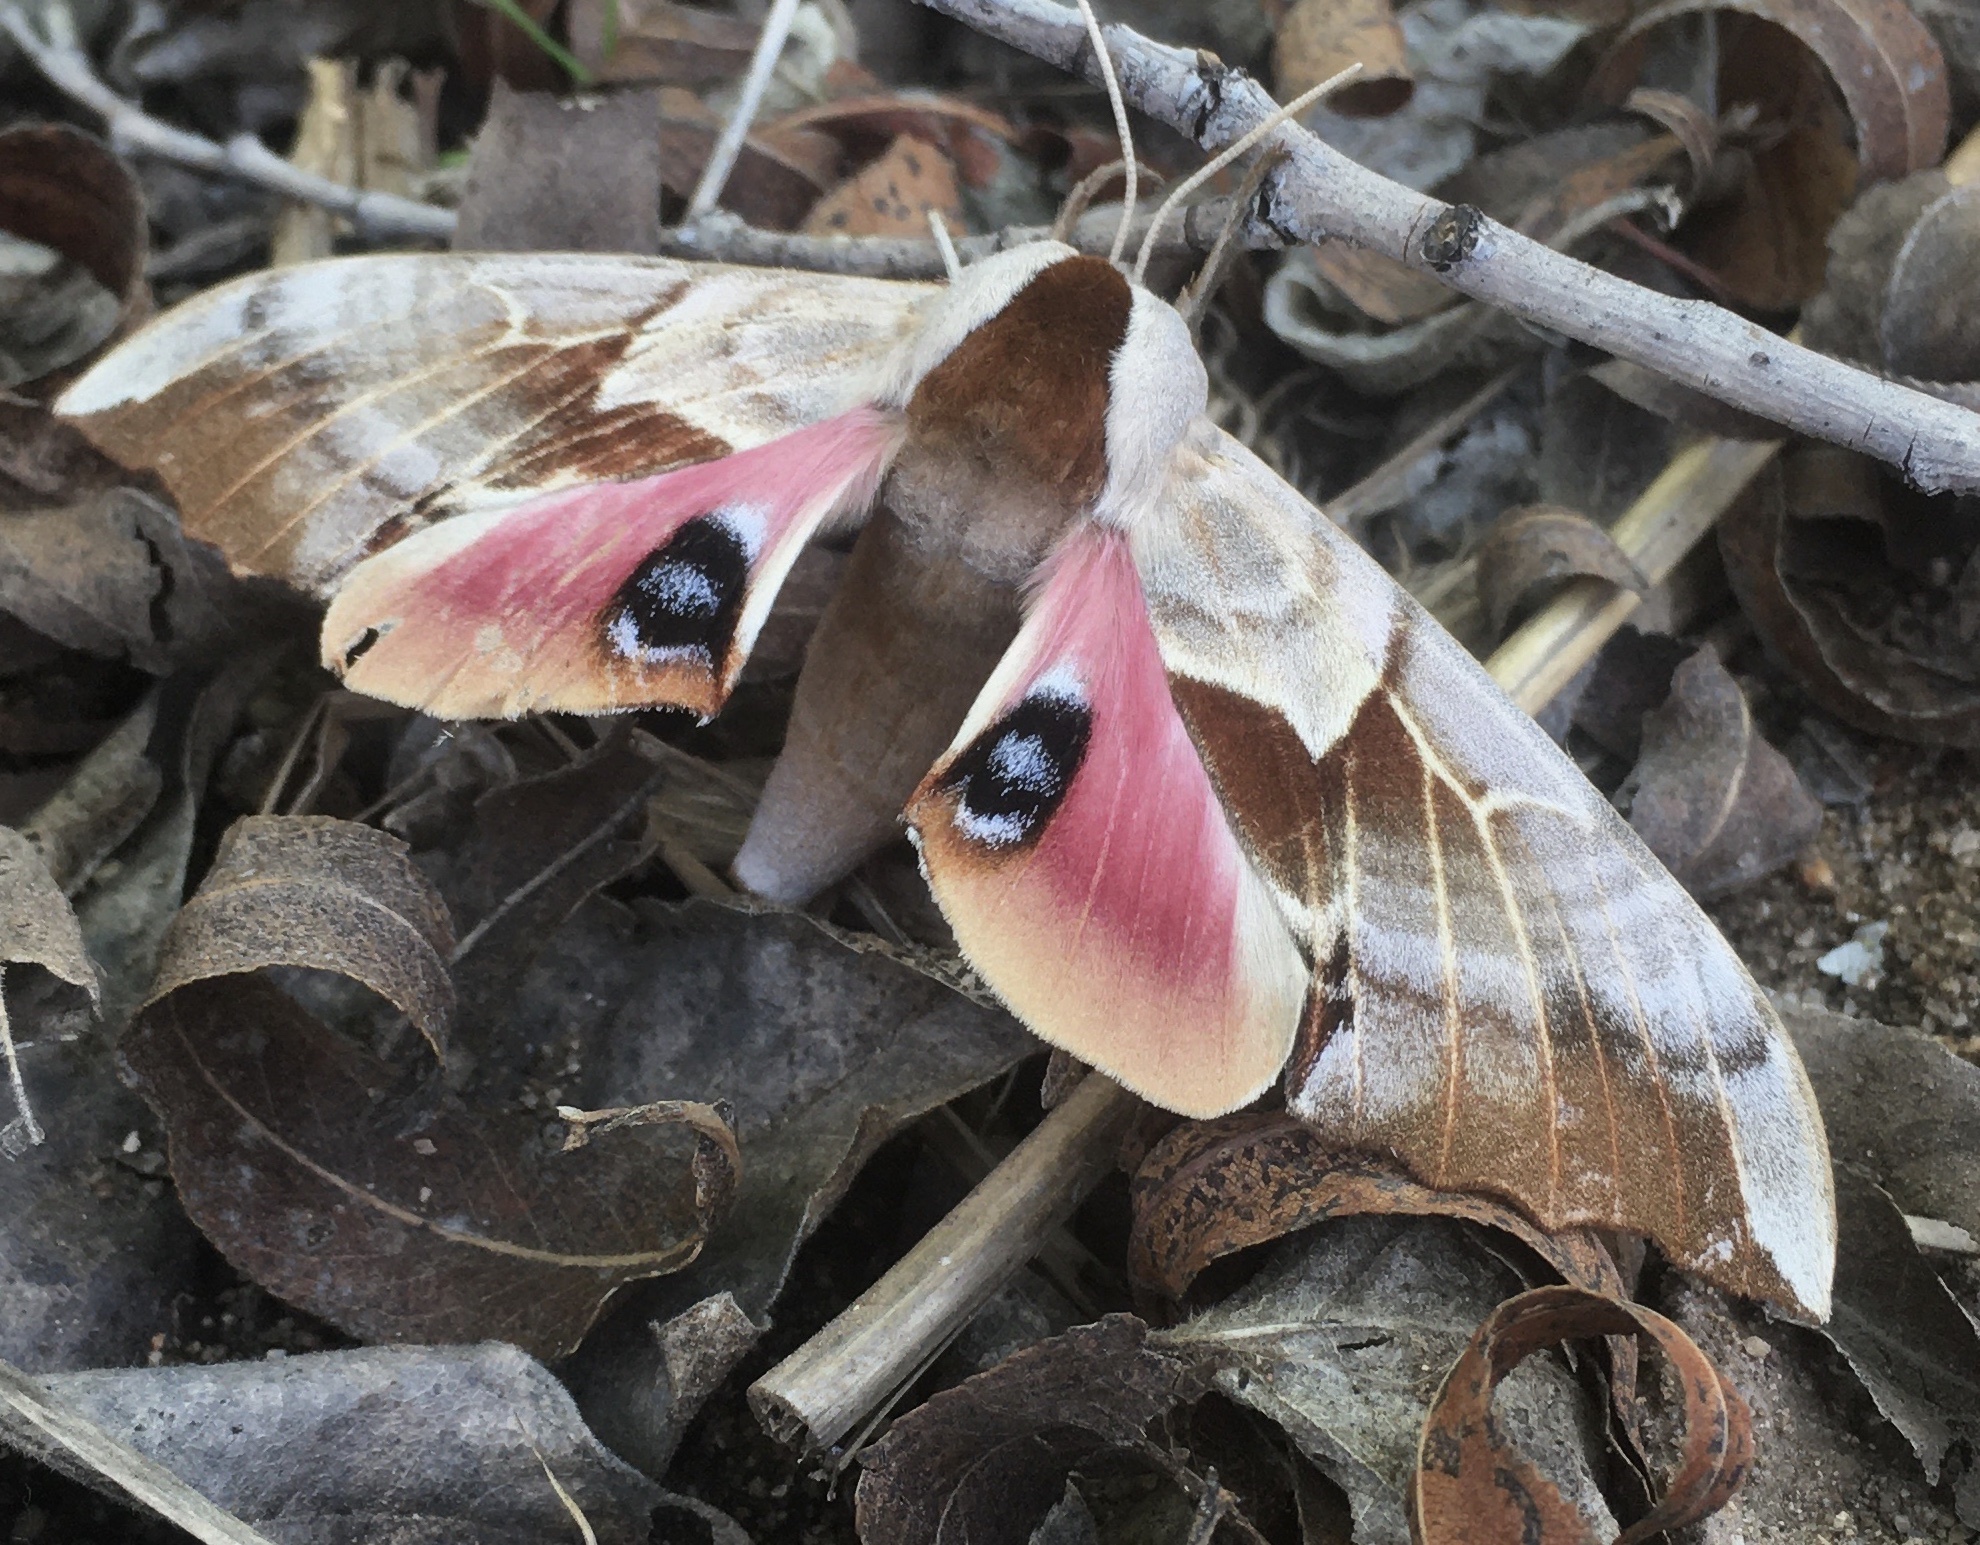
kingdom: Animalia
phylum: Arthropoda
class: Insecta
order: Lepidoptera
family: Sphingidae
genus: Smerinthus
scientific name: Smerinthus cerisyi
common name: Cerisy's sphinx moth
